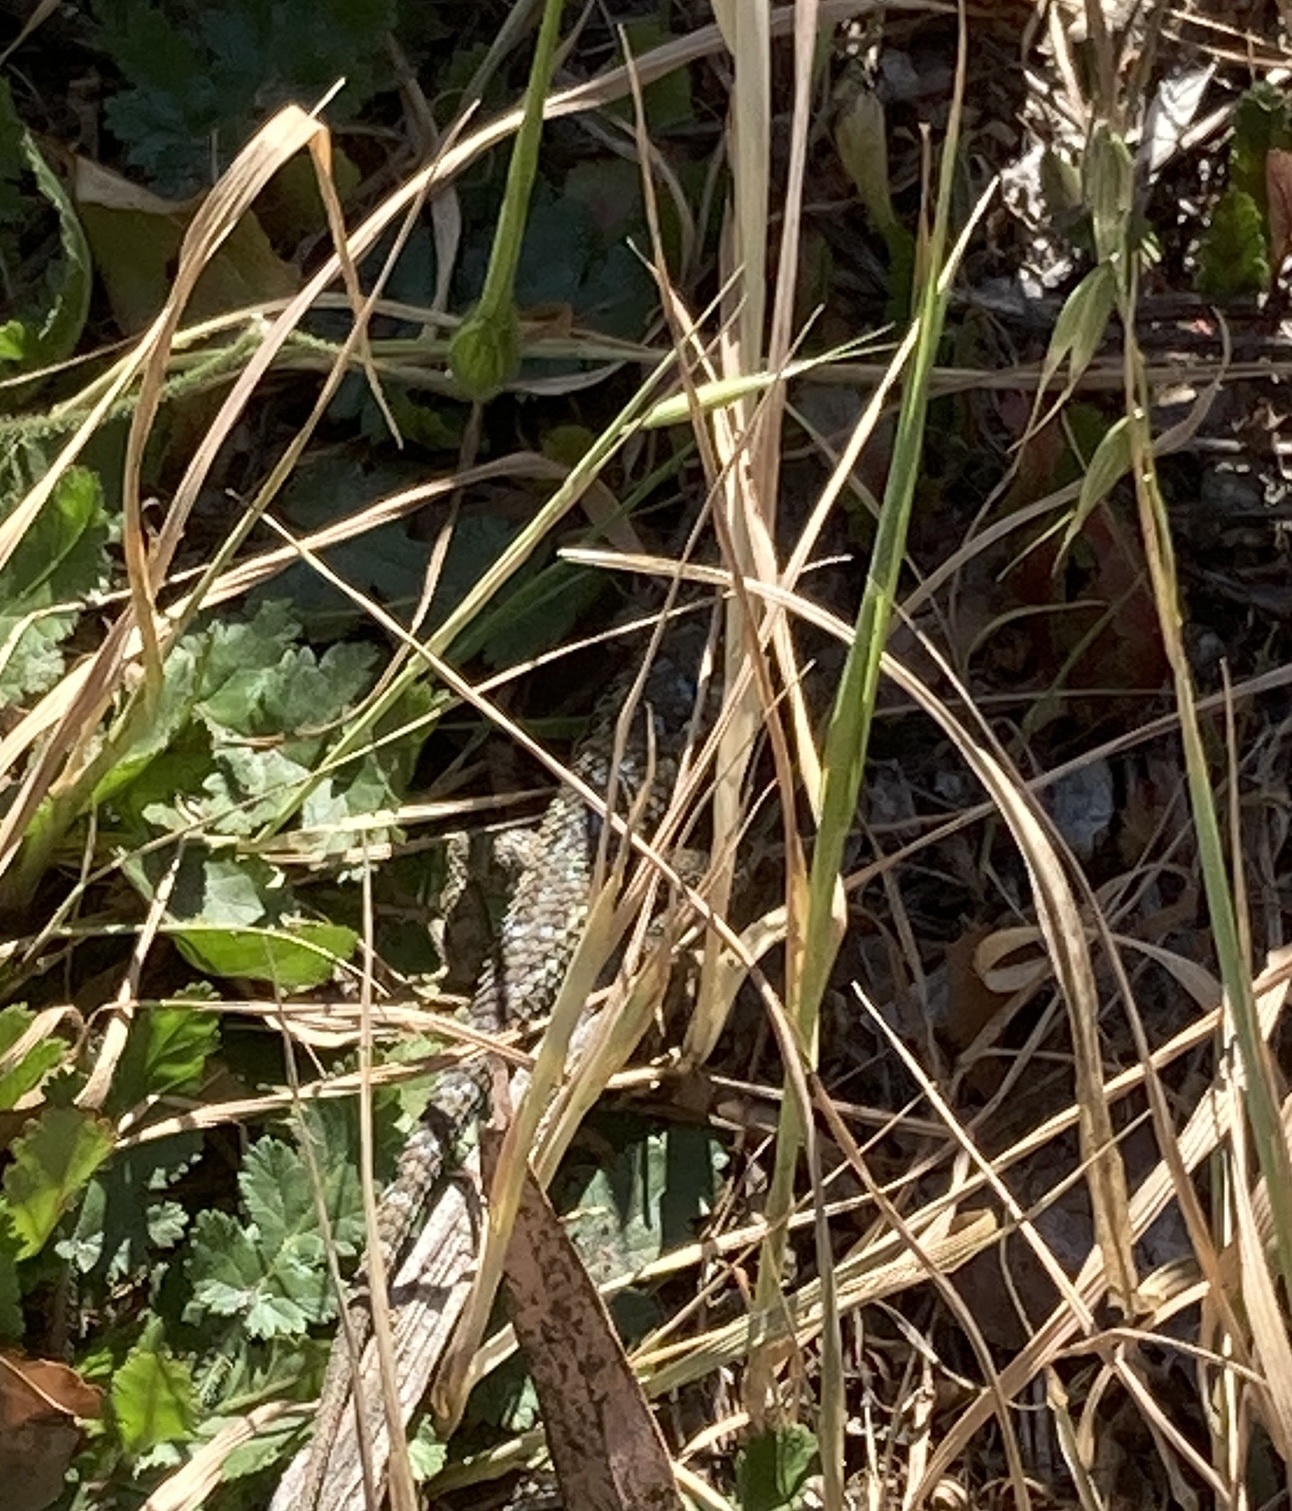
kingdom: Animalia
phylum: Chordata
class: Squamata
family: Phrynosomatidae
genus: Sceloporus
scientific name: Sceloporus occidentalis
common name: Western fence lizard
